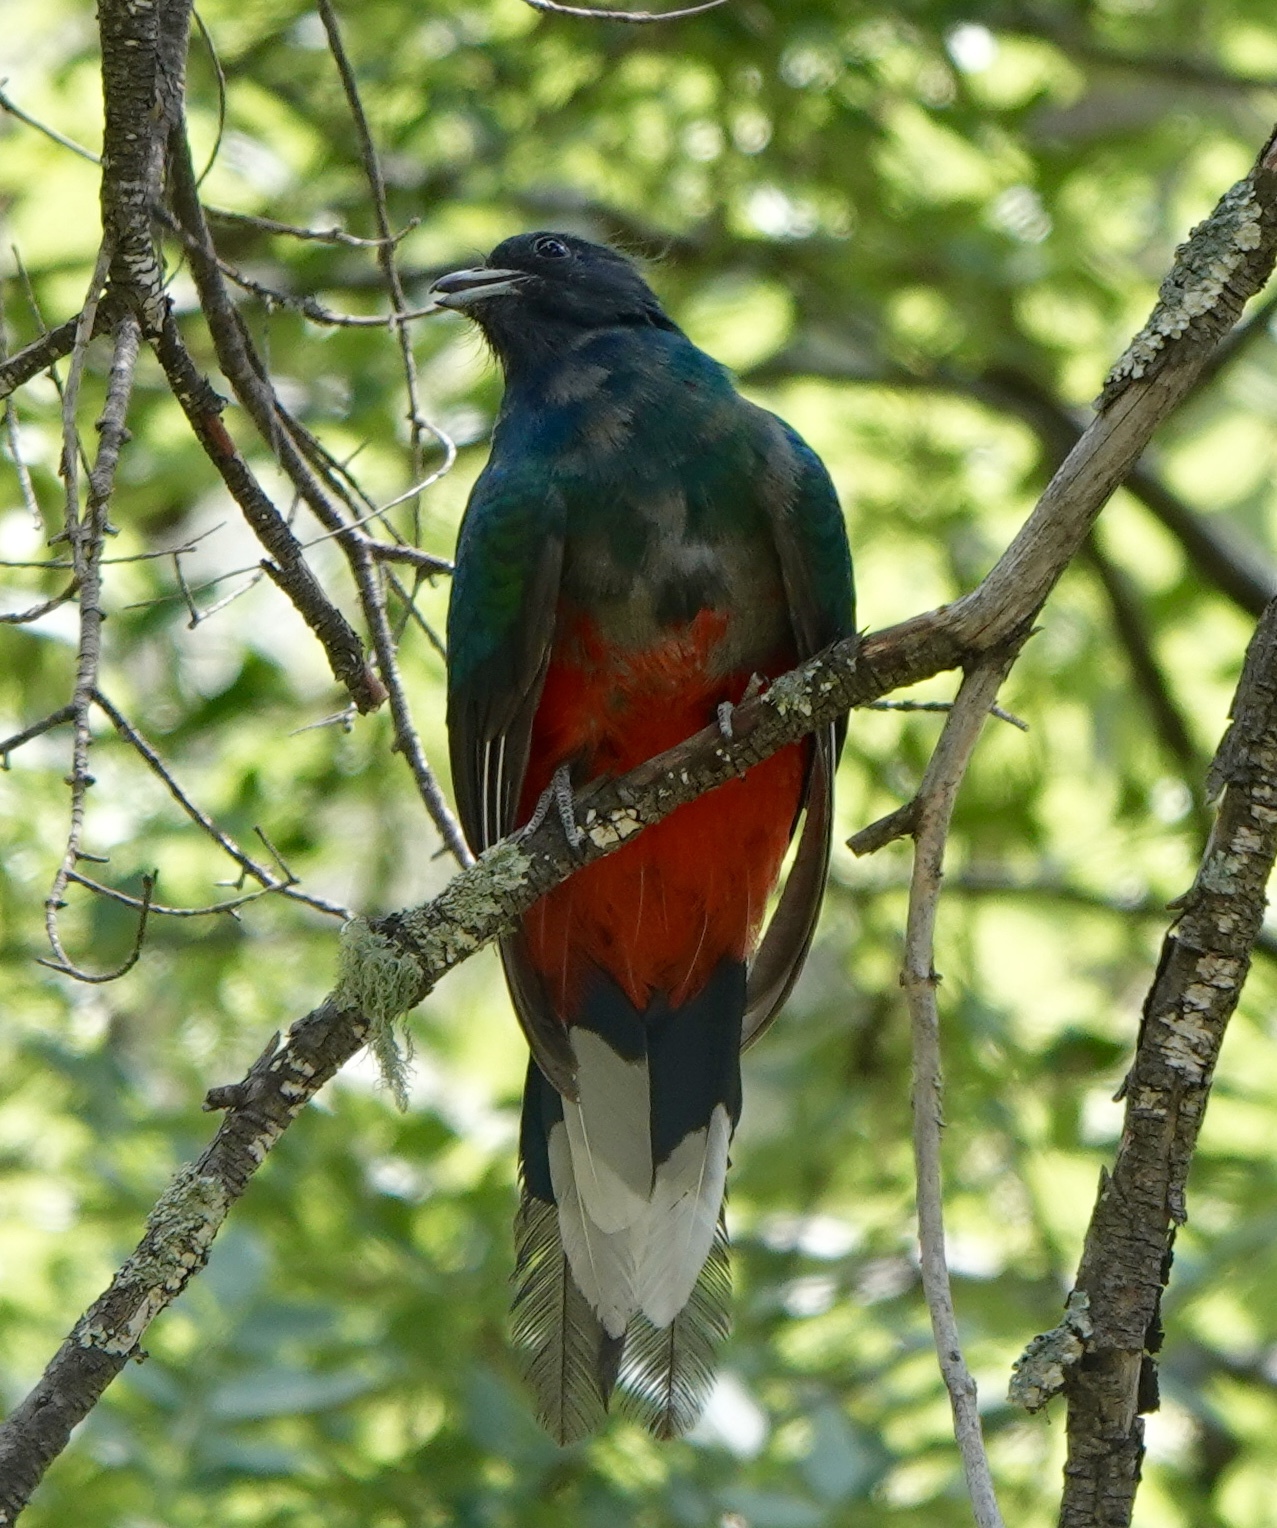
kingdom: Animalia
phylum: Chordata
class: Aves
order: Trogoniformes
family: Trogonidae
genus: Euptilotis
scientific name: Euptilotis neoxenus
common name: Eared quetzal
